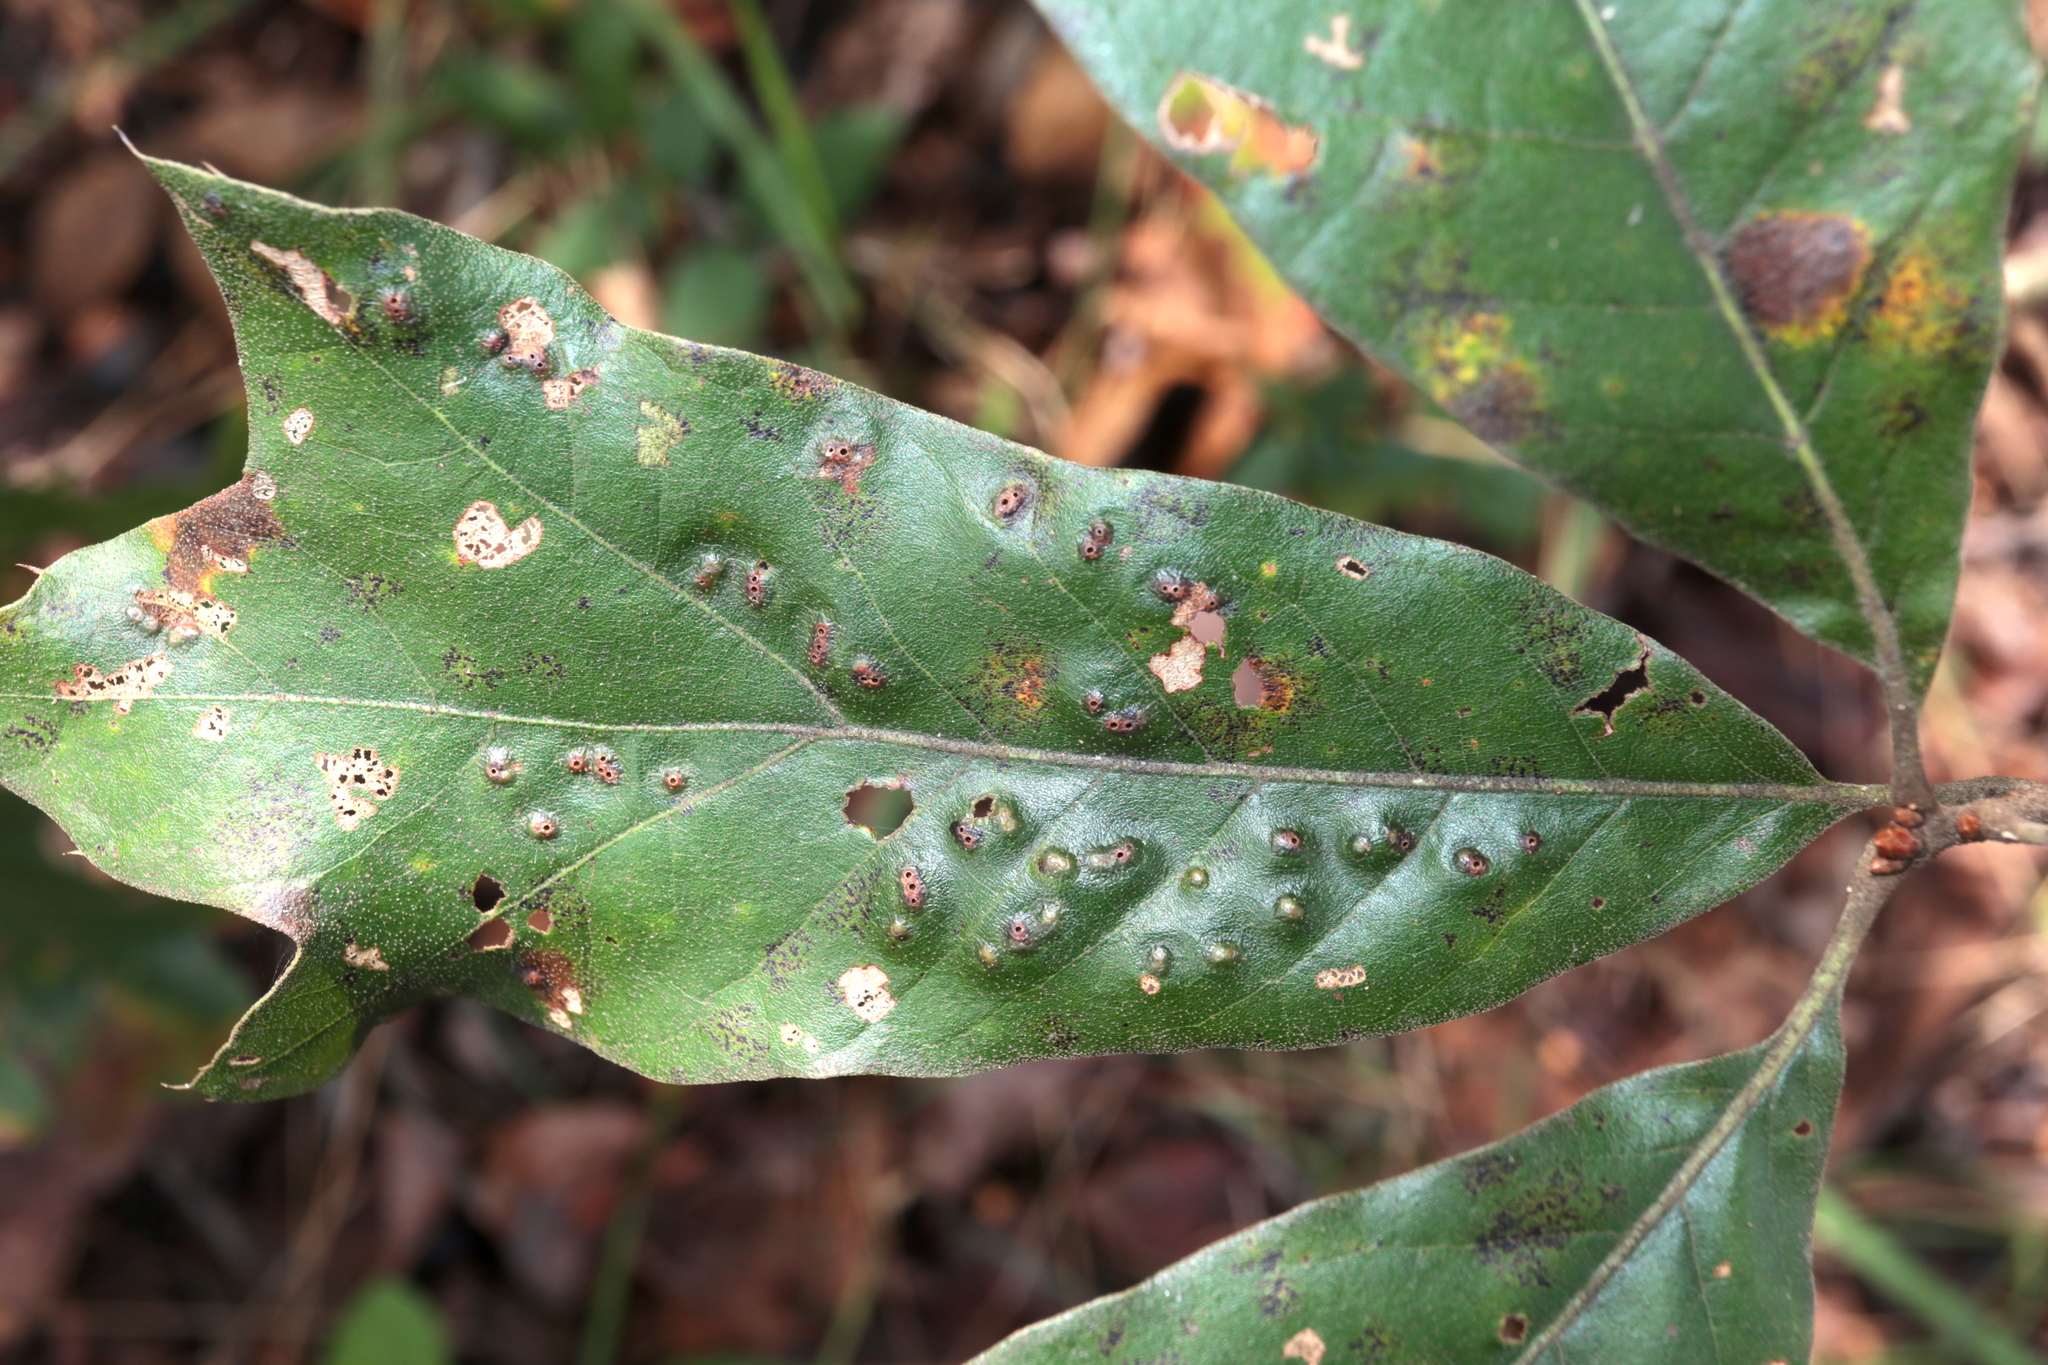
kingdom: Animalia
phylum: Arthropoda
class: Insecta
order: Hymenoptera
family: Cynipidae
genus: Callirhytis
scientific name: Callirhytis
